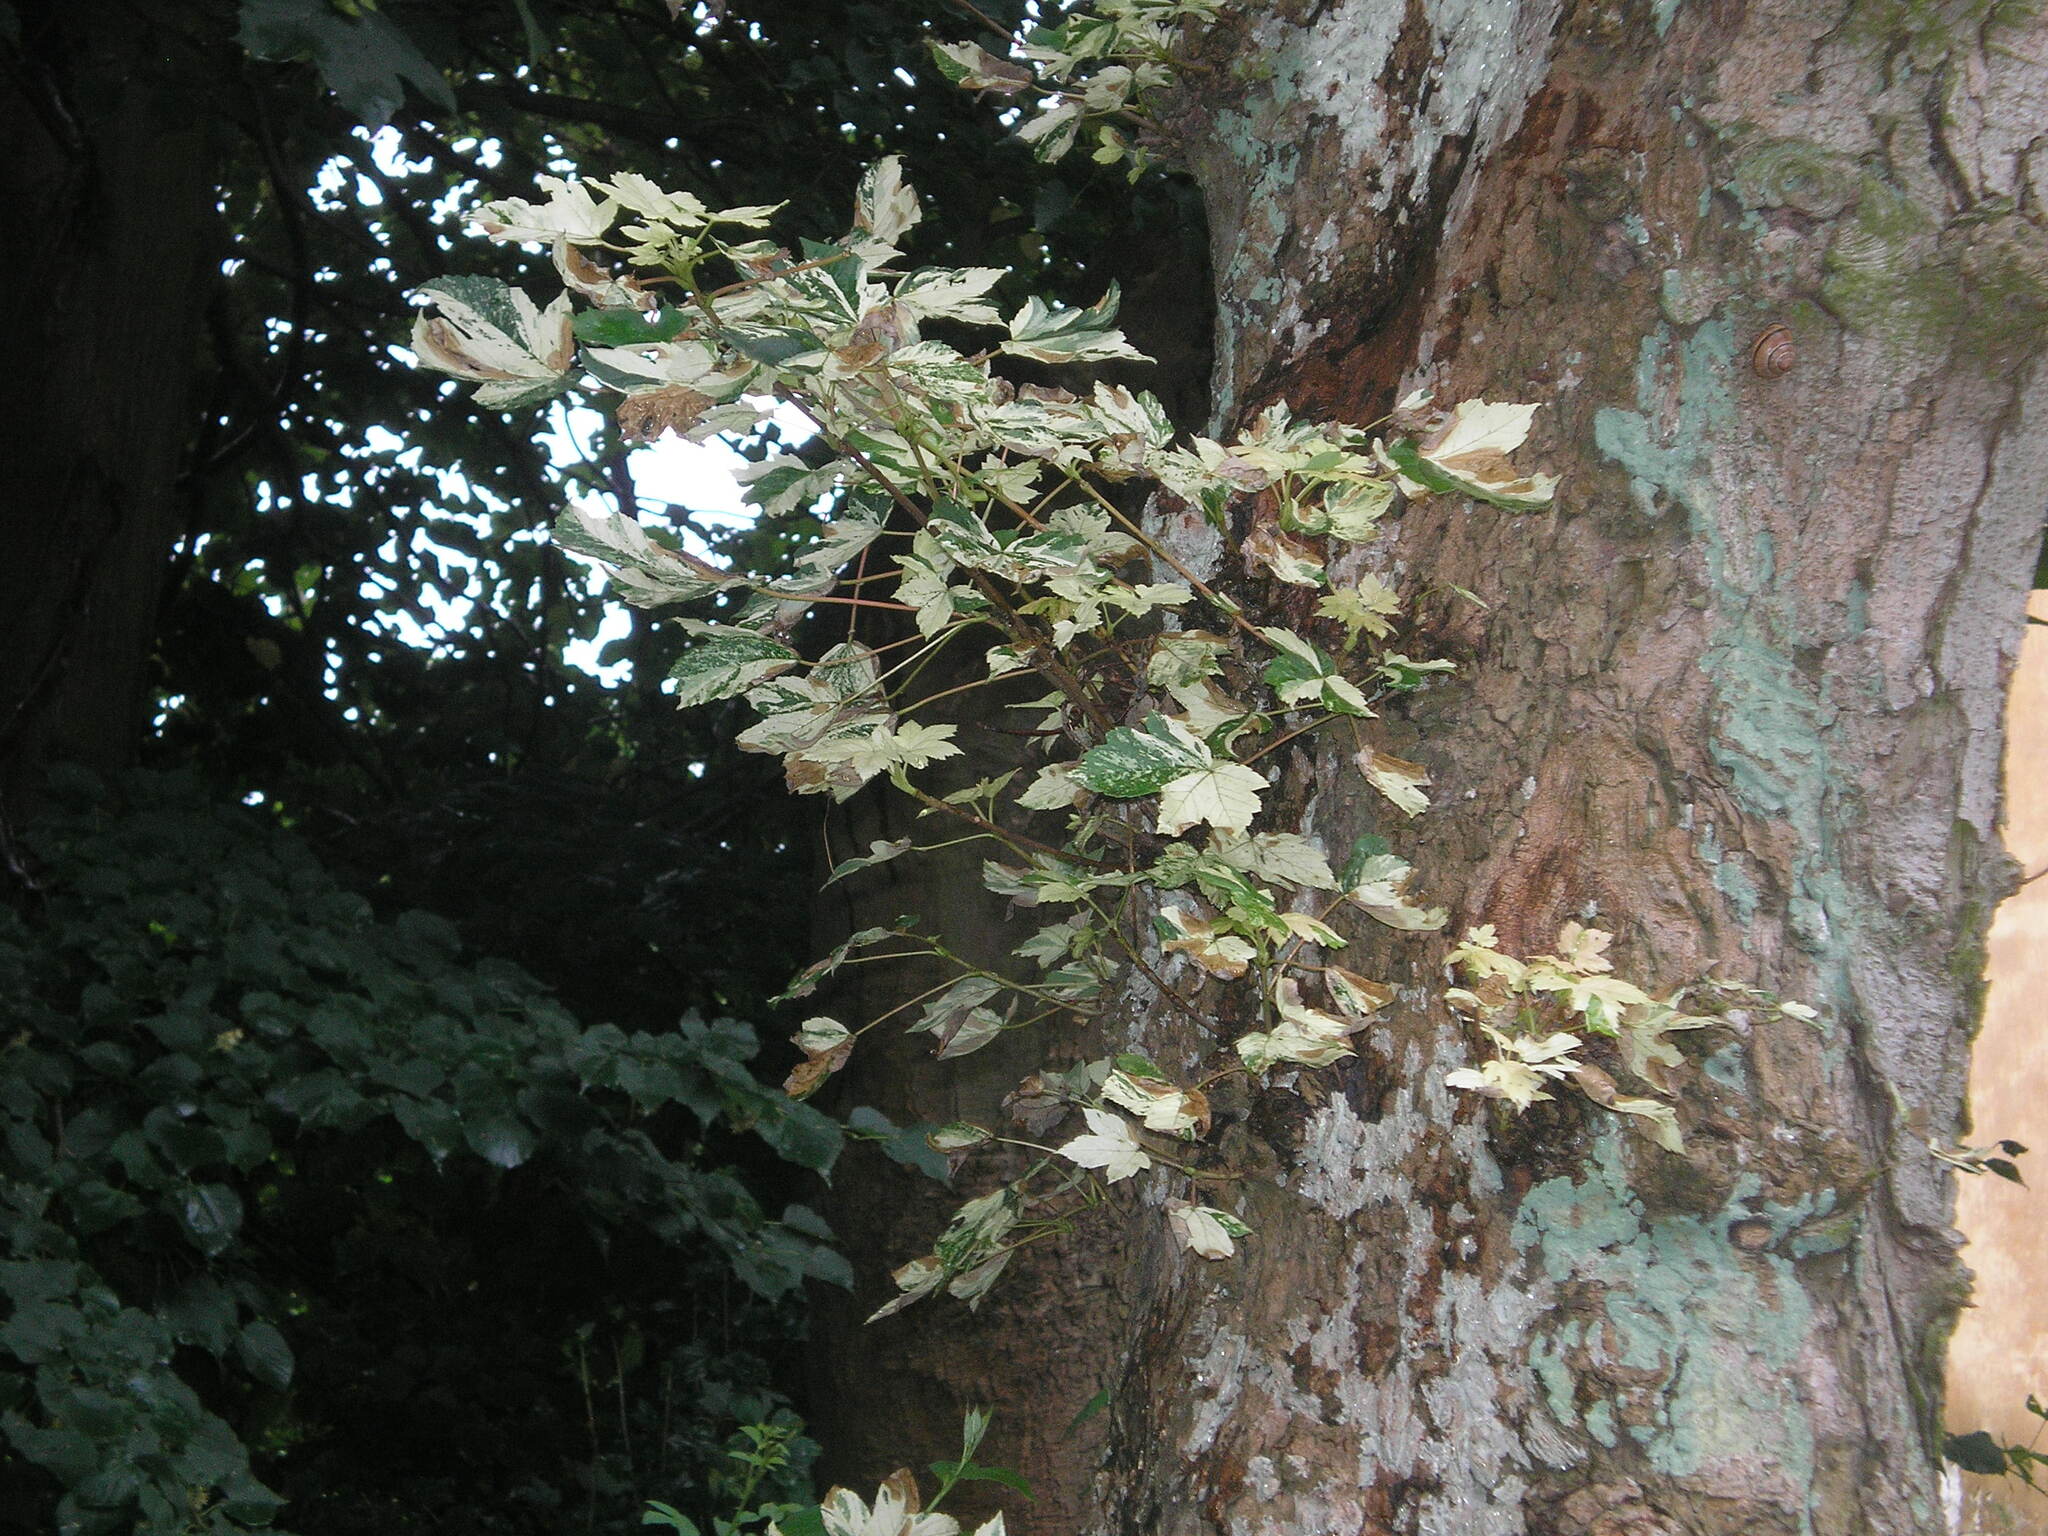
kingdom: Plantae
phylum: Tracheophyta
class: Magnoliopsida
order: Sapindales
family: Sapindaceae
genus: Acer
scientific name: Acer pseudoplatanus
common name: Sycamore
